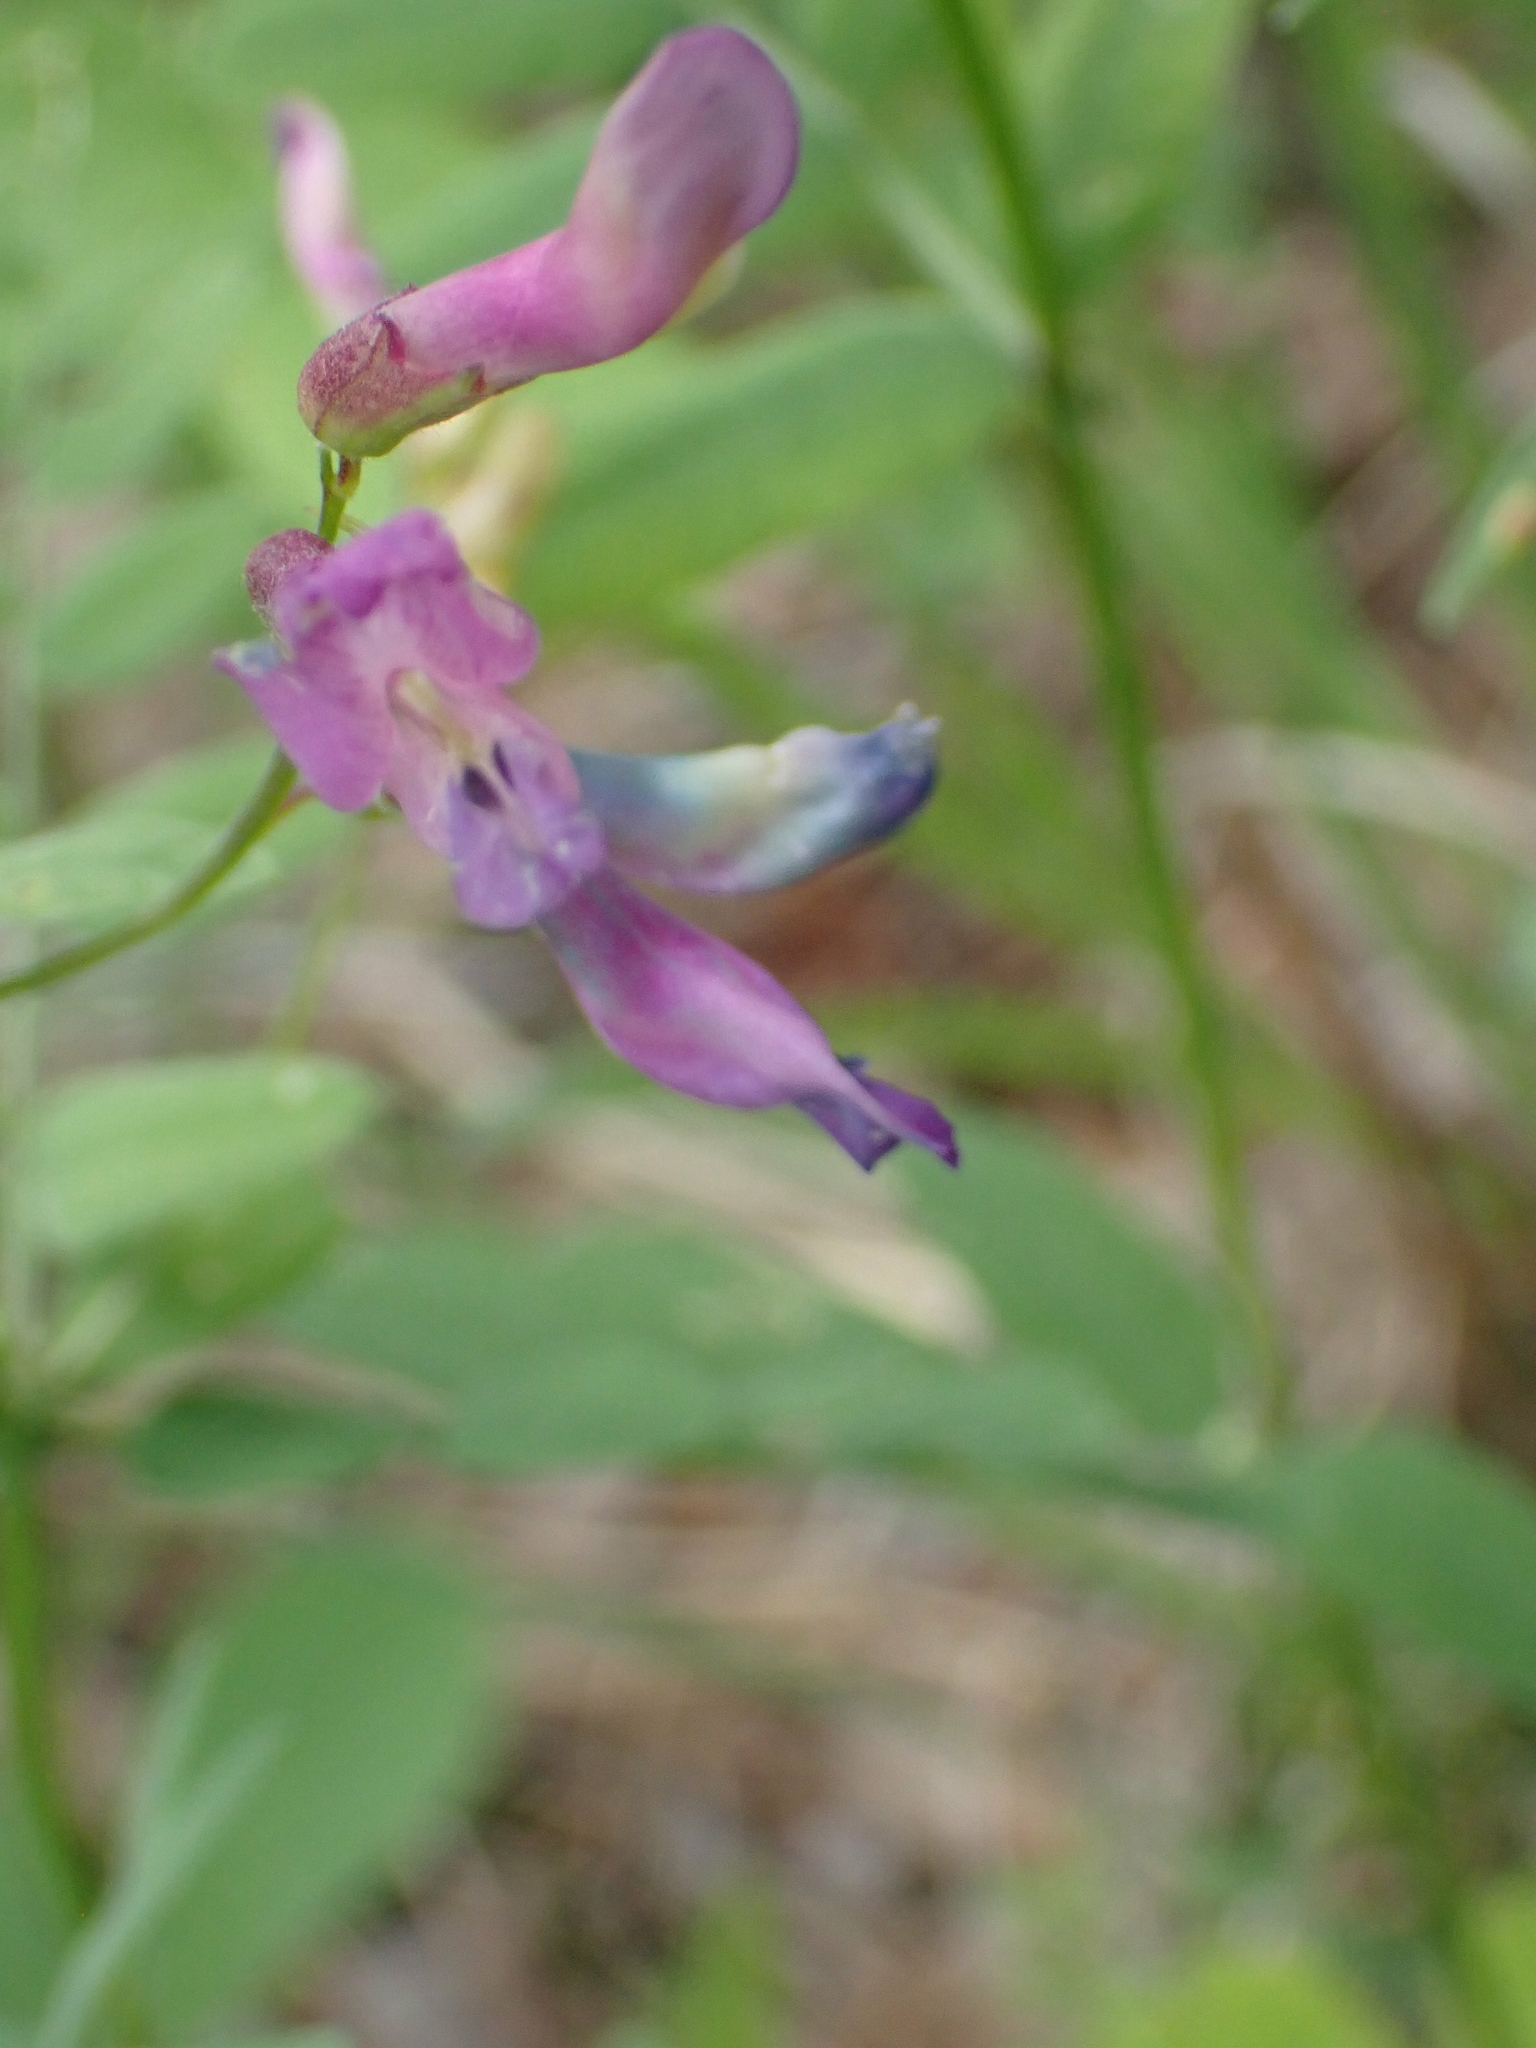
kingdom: Plantae
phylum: Tracheophyta
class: Magnoliopsida
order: Fabales
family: Fabaceae
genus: Vicia
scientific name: Vicia americana
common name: American vetch
